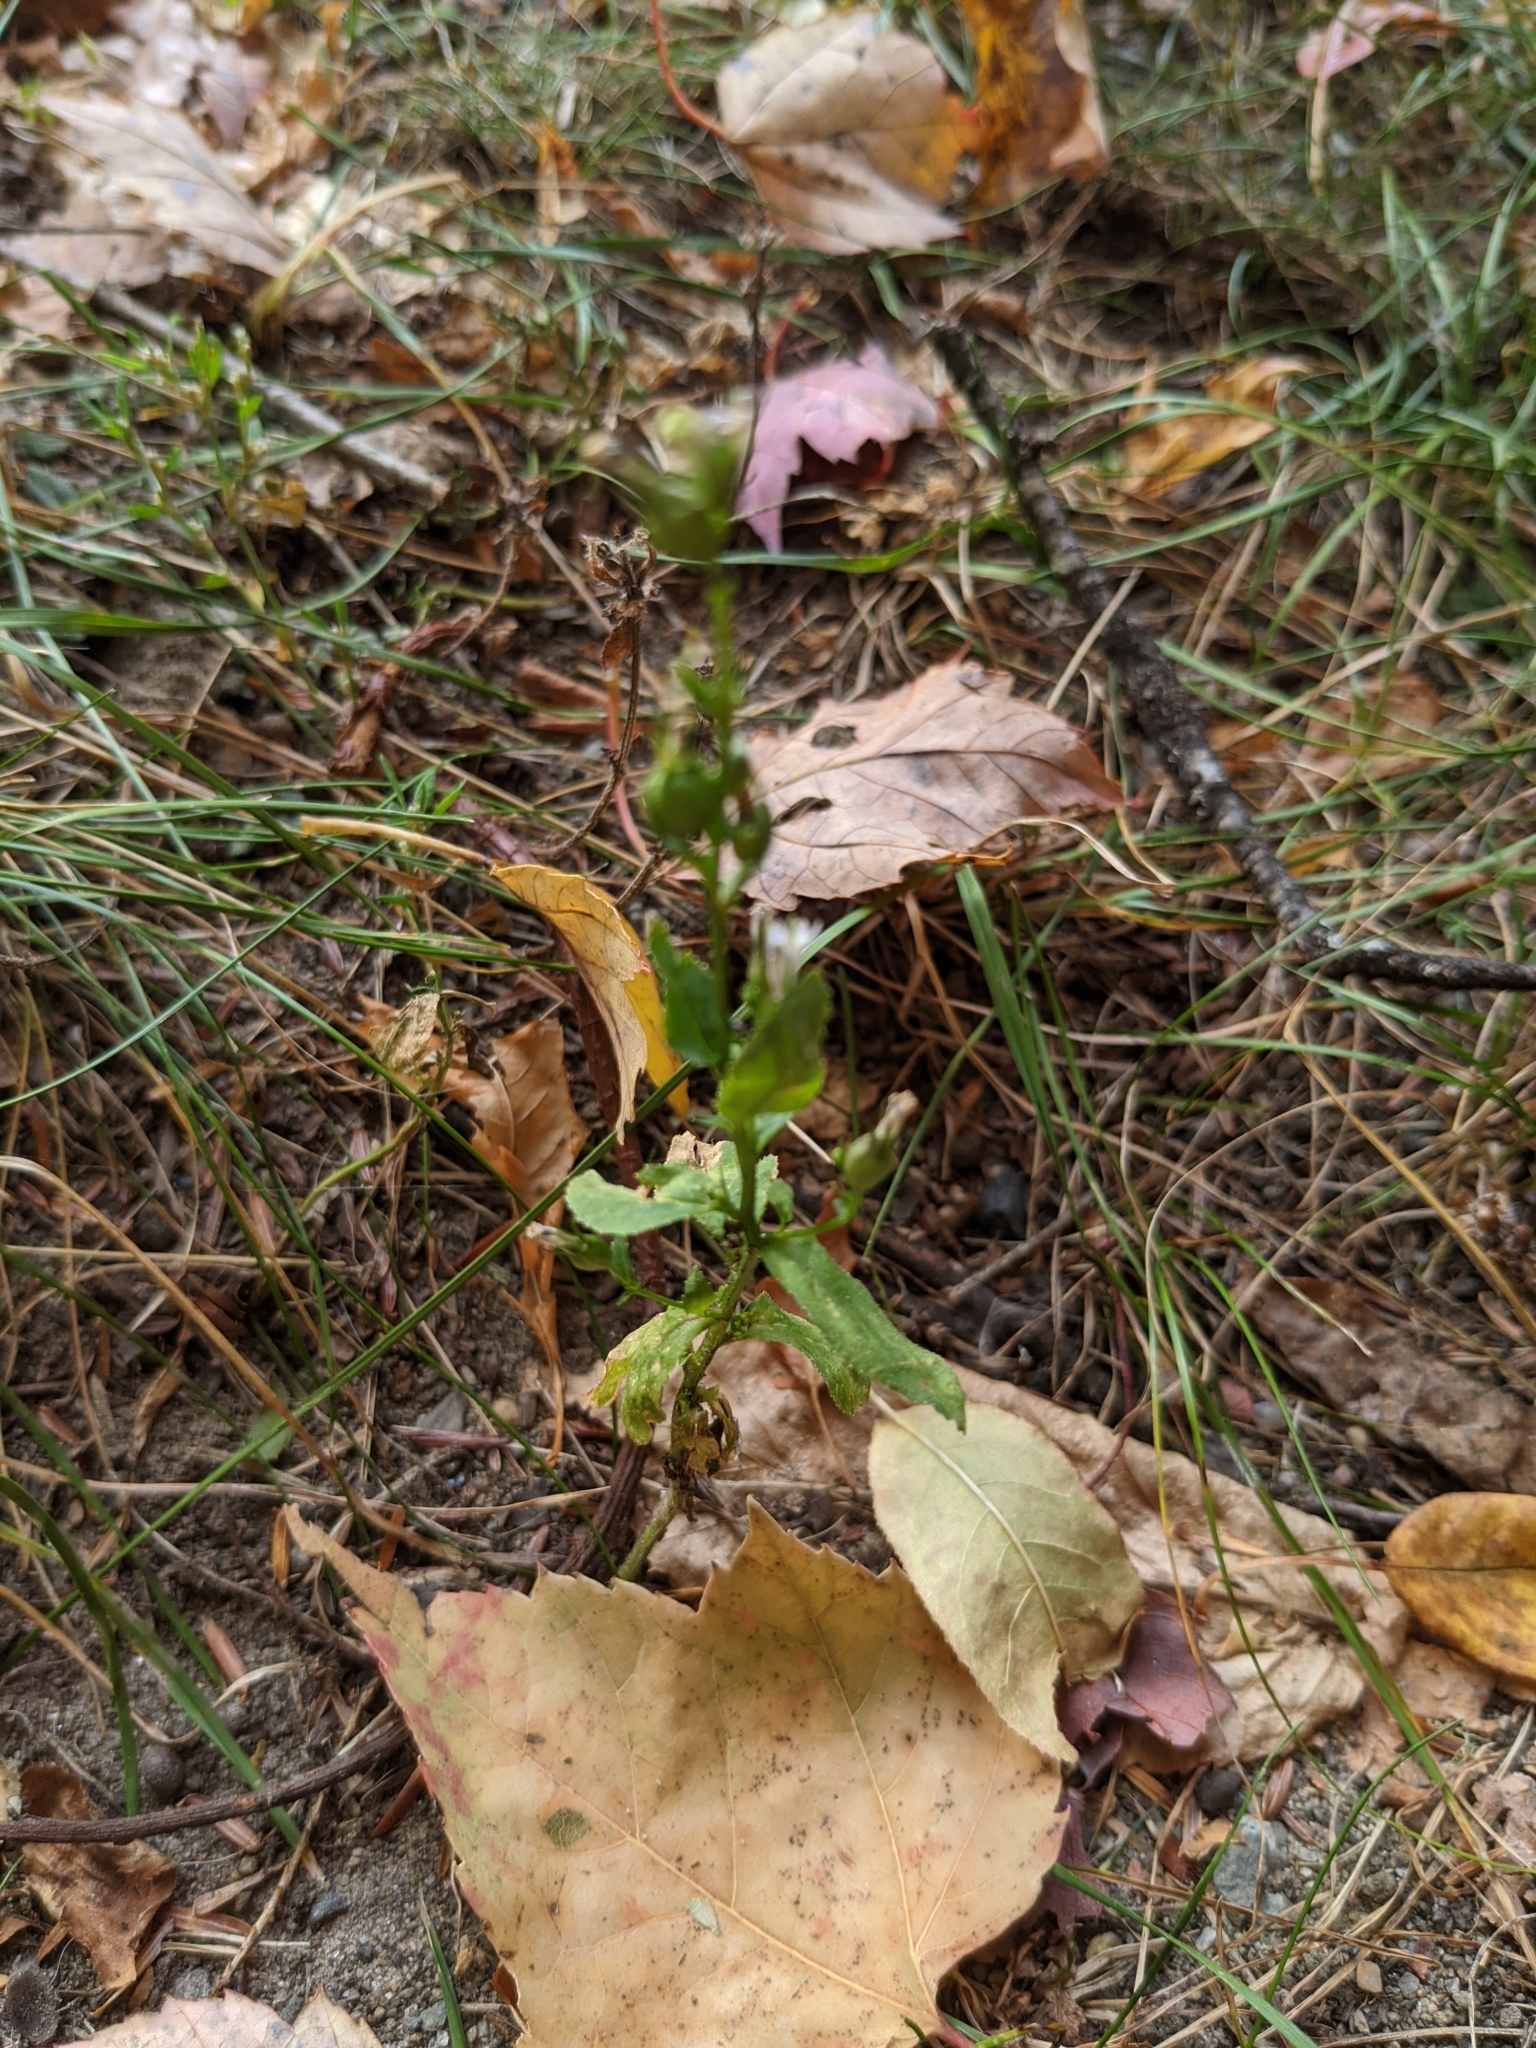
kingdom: Plantae
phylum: Tracheophyta
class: Magnoliopsida
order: Asterales
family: Campanulaceae
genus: Lobelia
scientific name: Lobelia inflata
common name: Indian tobacco
